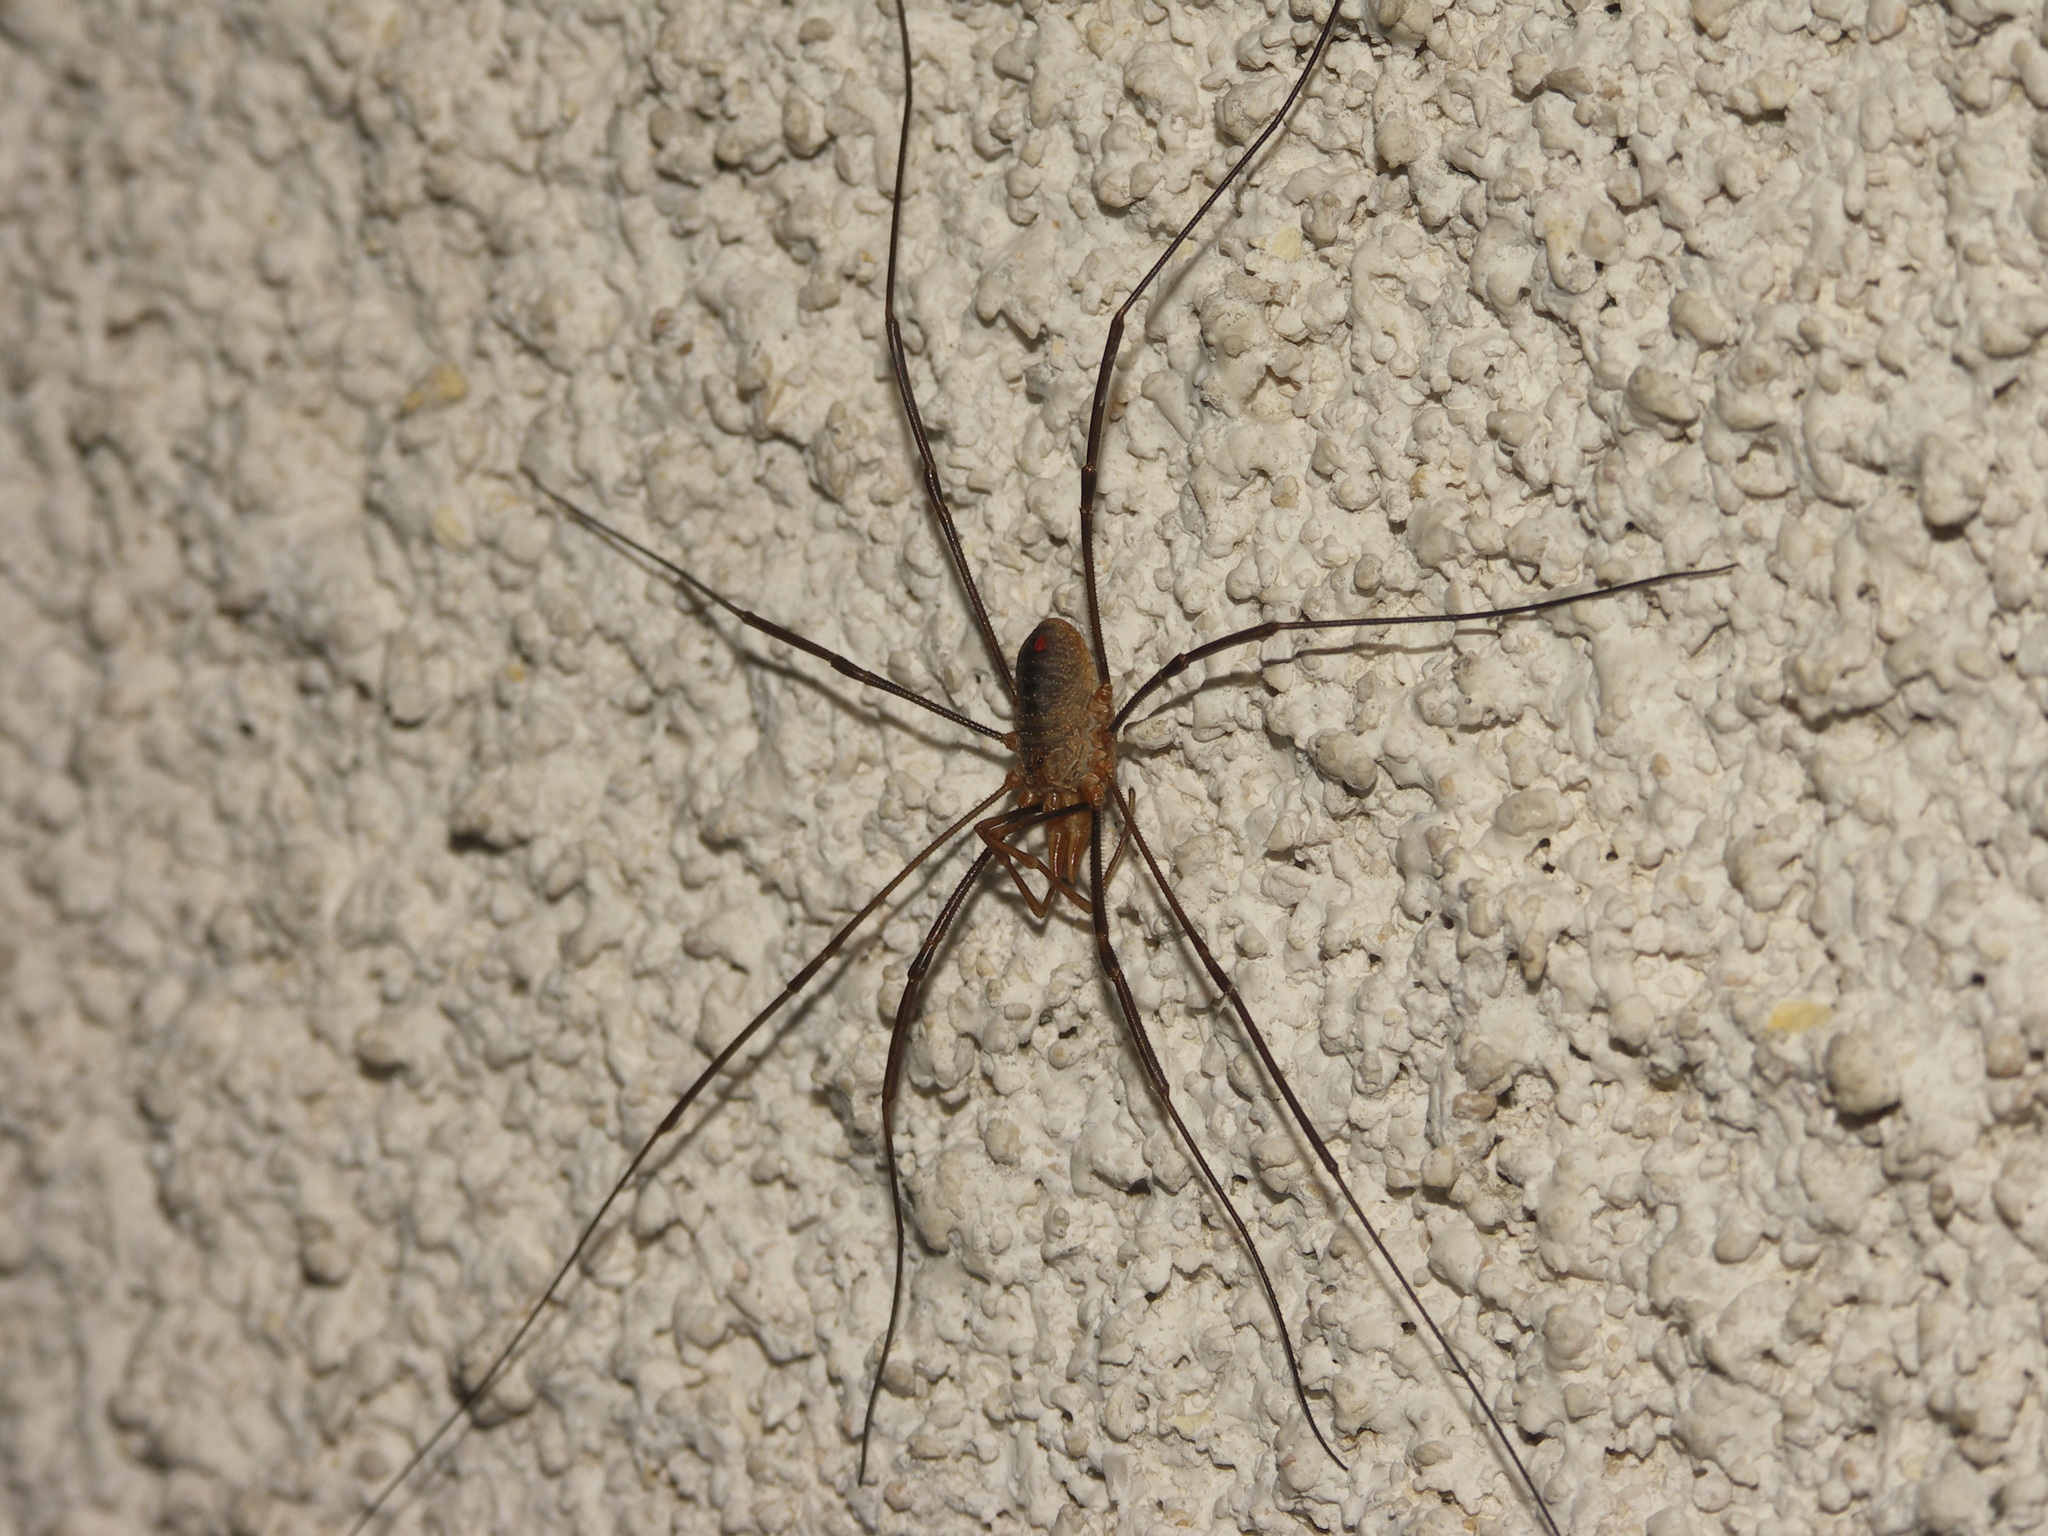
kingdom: Animalia
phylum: Arthropoda
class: Arachnida
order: Opiliones
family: Phalangiidae
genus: Phalangium
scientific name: Phalangium opilio
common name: Daddy longleg
